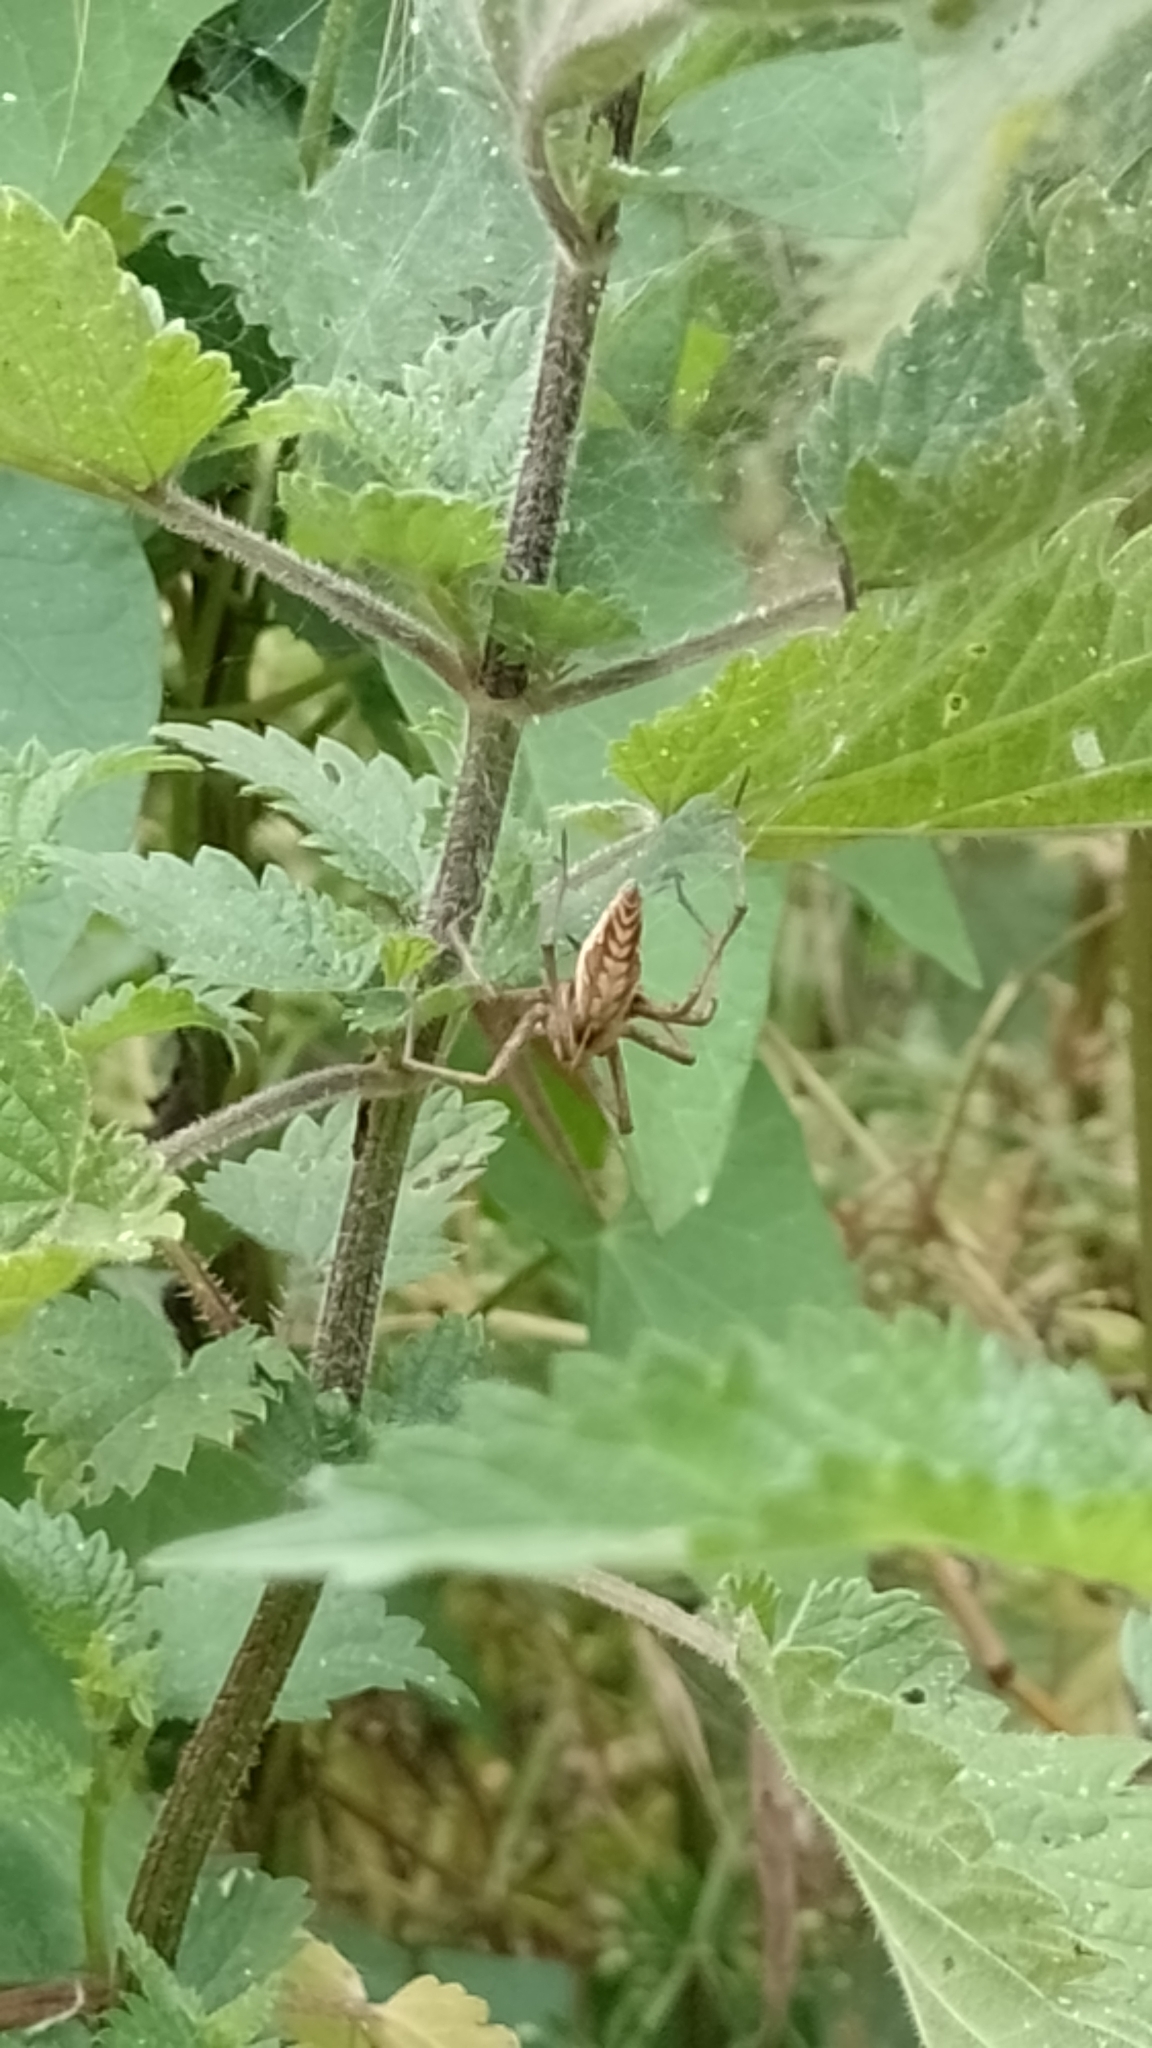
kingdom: Animalia
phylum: Arthropoda
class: Arachnida
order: Araneae
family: Pisauridae
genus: Pisaura
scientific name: Pisaura mirabilis
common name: Tent spider
